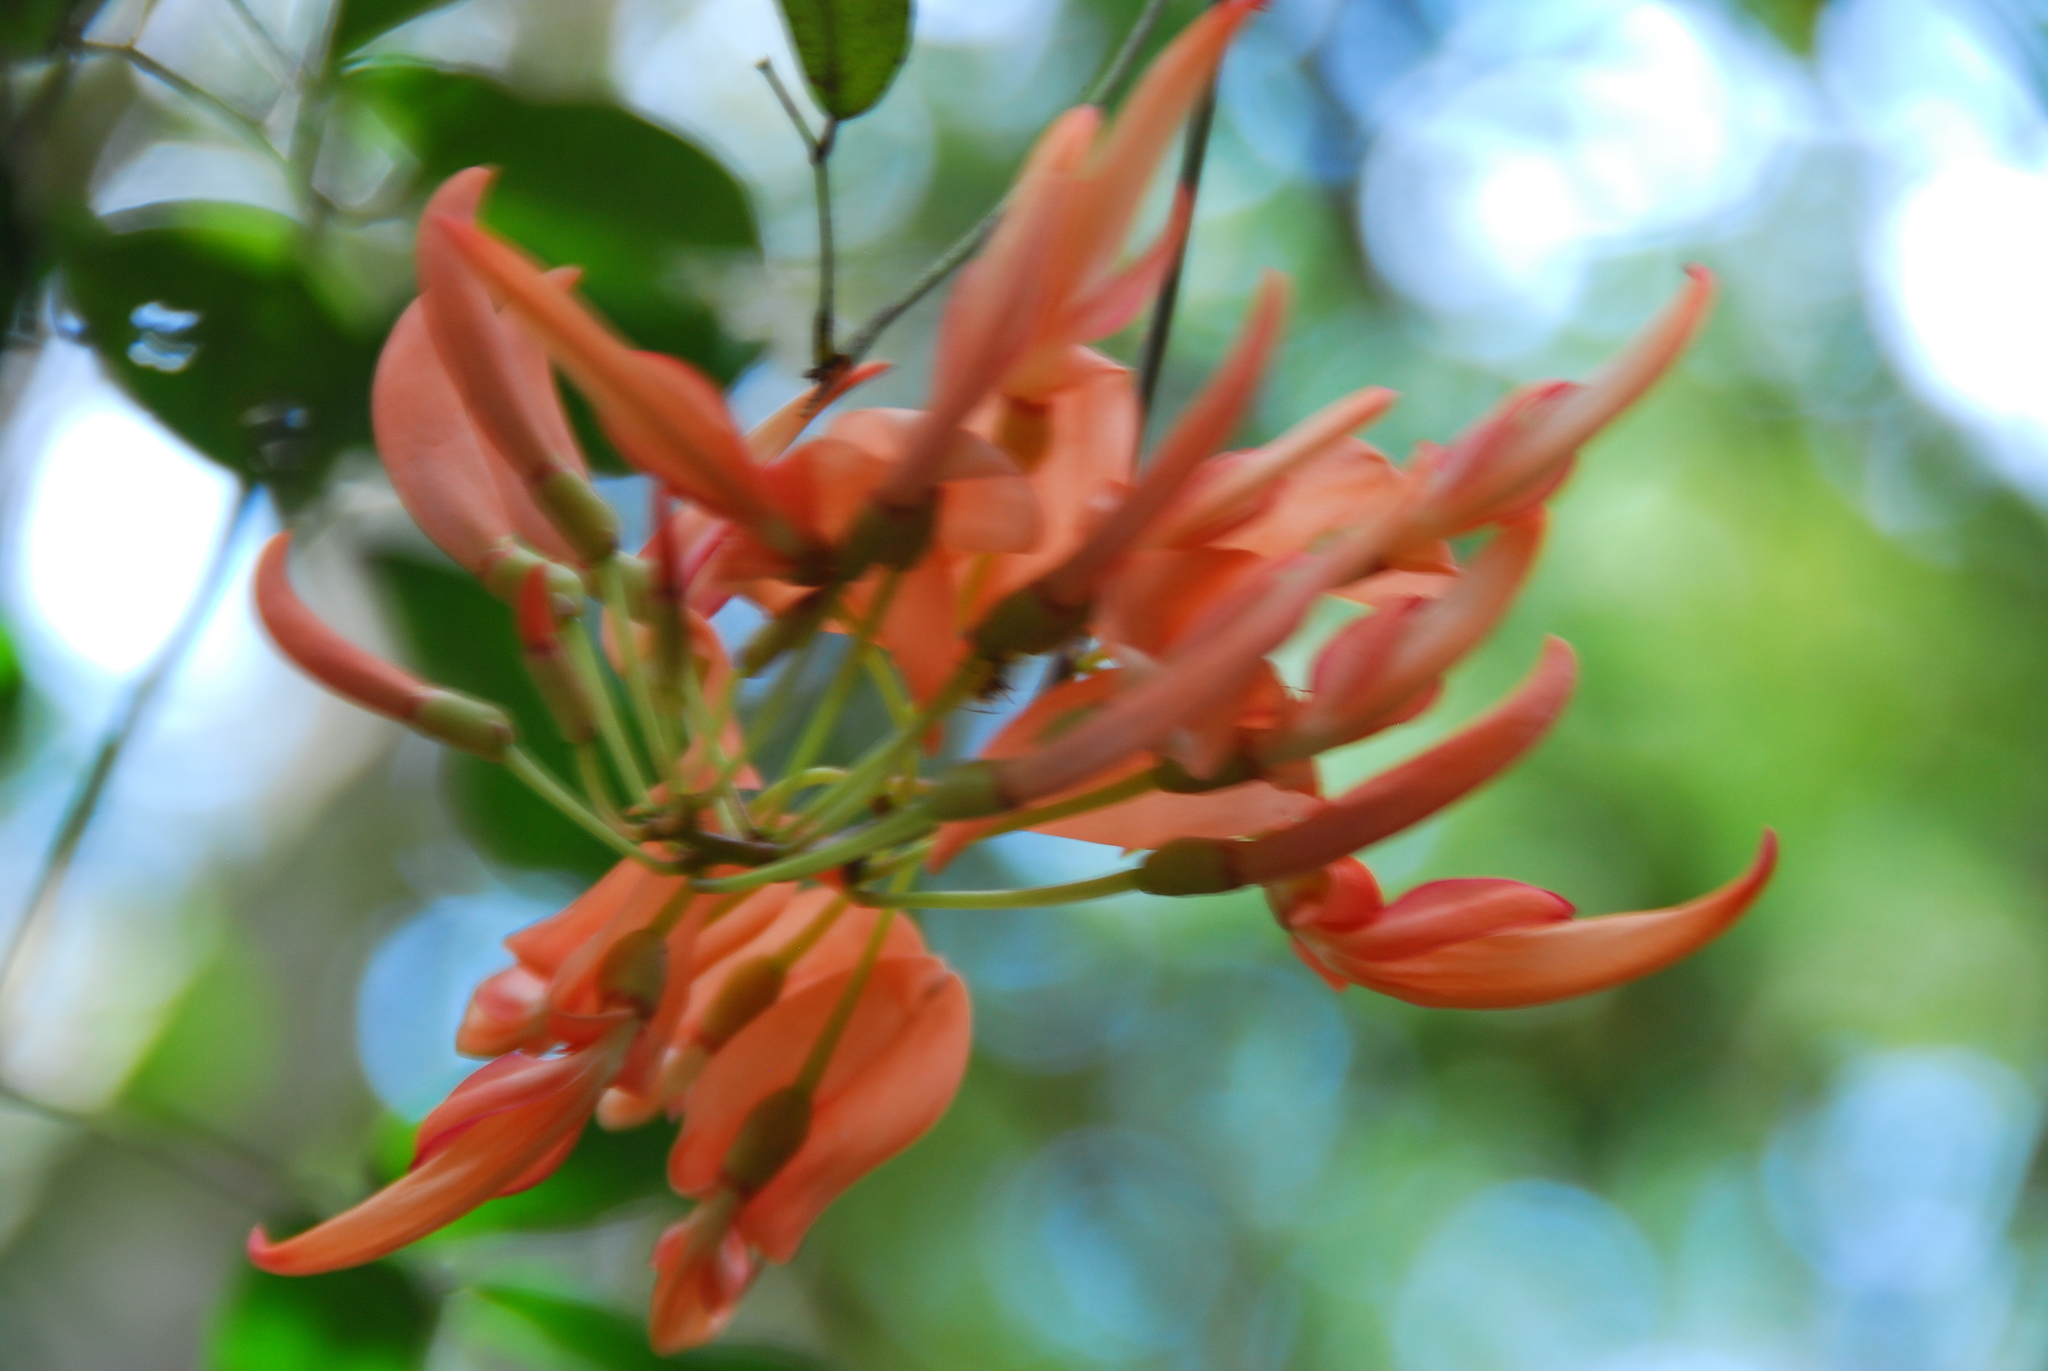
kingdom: Plantae
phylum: Tracheophyta
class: Magnoliopsida
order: Fabales
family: Fabaceae
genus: Strongylodon
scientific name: Strongylodon madagascariensis
